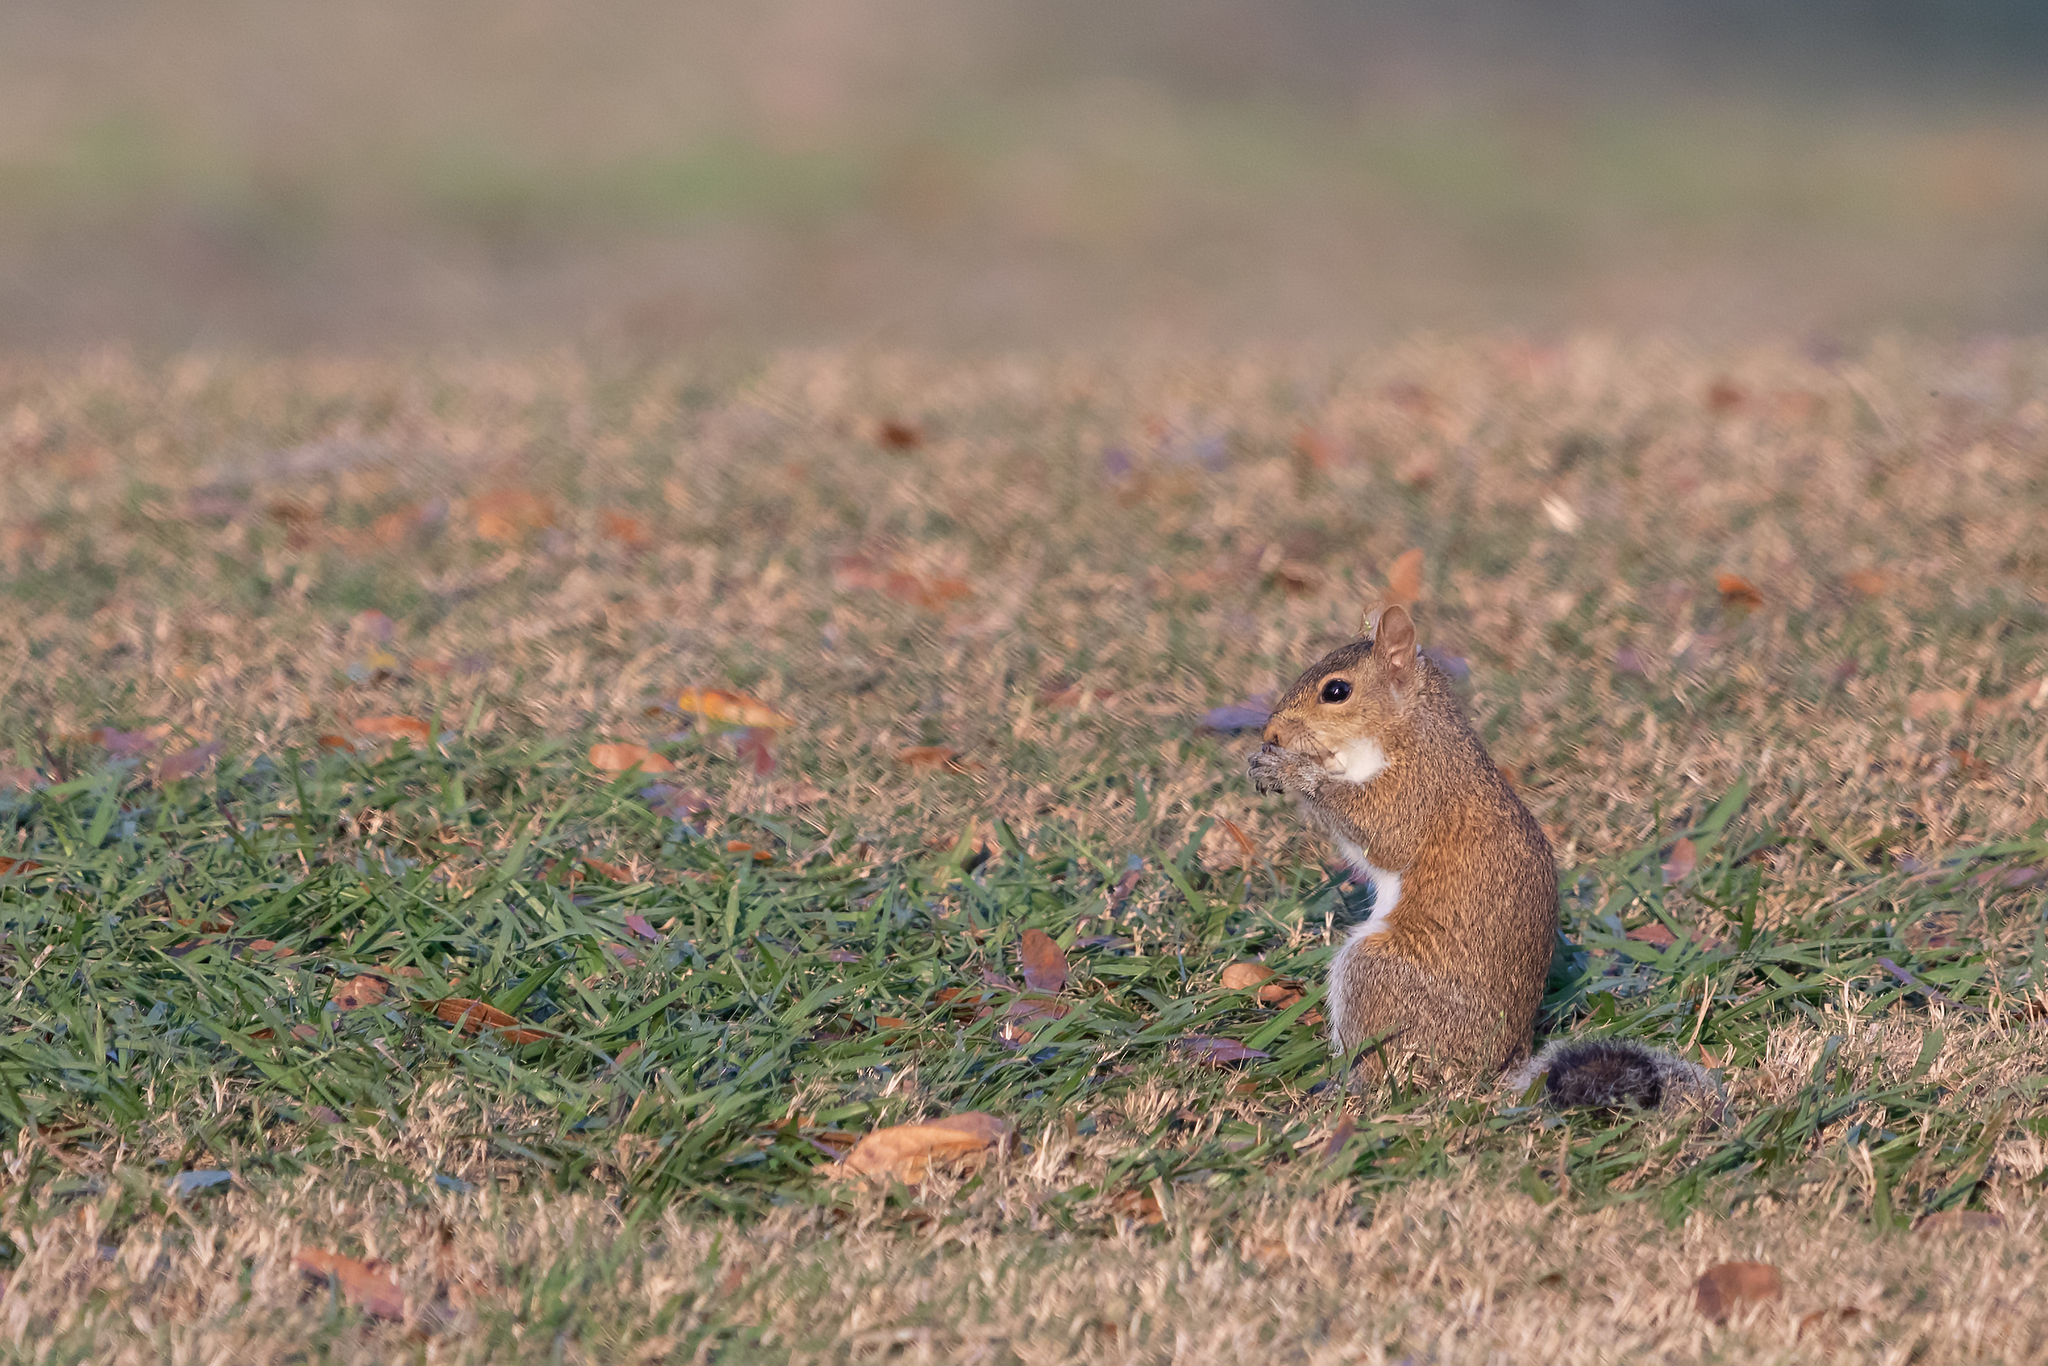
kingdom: Animalia
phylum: Chordata
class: Mammalia
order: Rodentia
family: Sciuridae
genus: Sciurus
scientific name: Sciurus carolinensis
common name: Eastern gray squirrel
